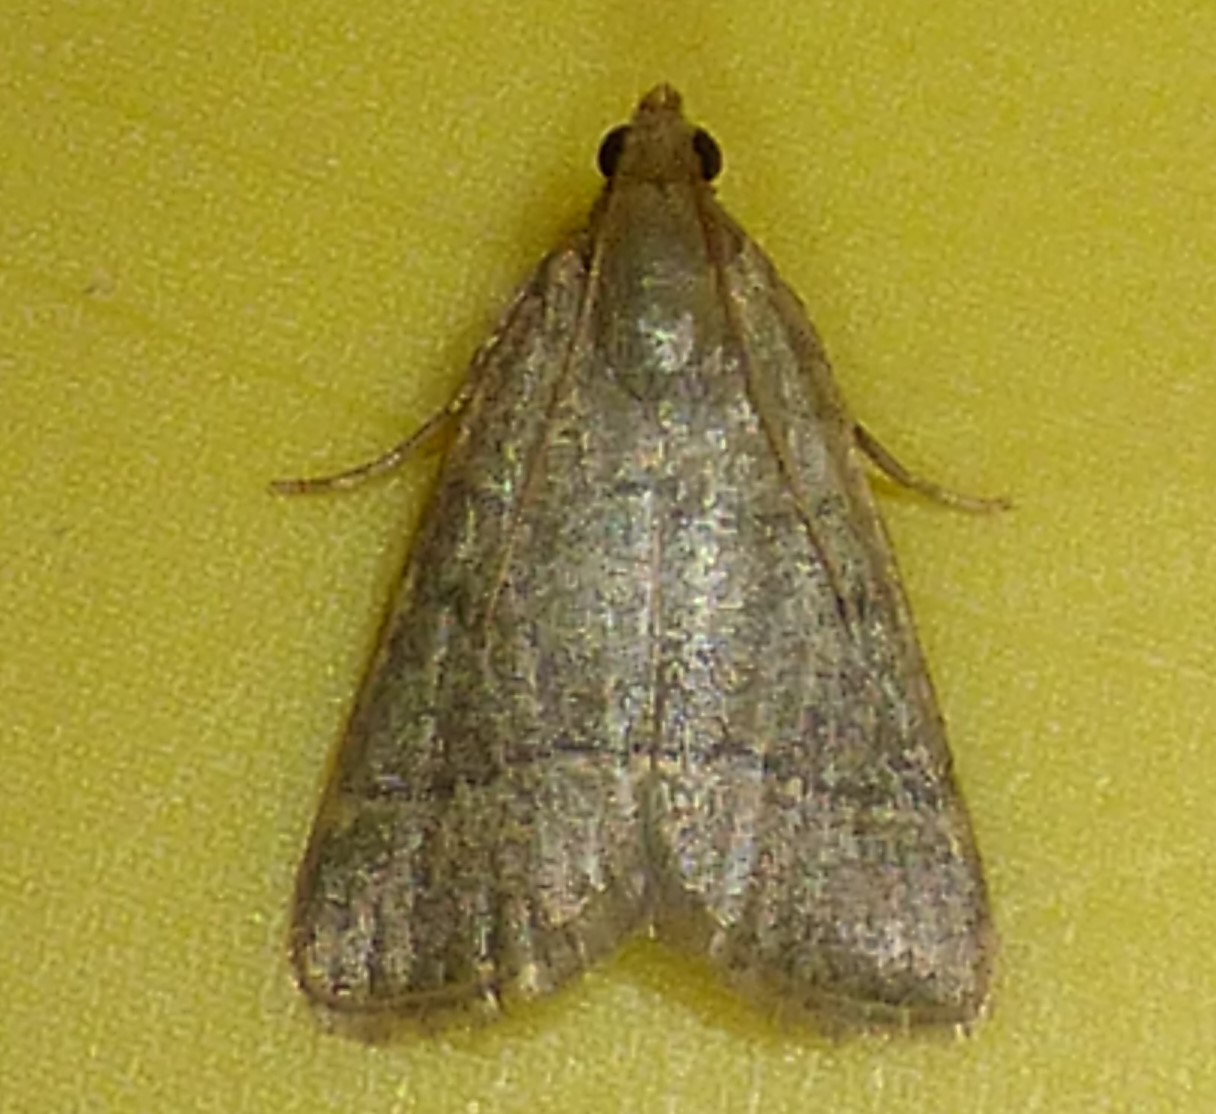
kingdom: Animalia
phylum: Arthropoda
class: Insecta
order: Lepidoptera
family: Pyralidae
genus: Hypsopygia
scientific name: Hypsopygia nostralis
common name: Southern hayworm moth
